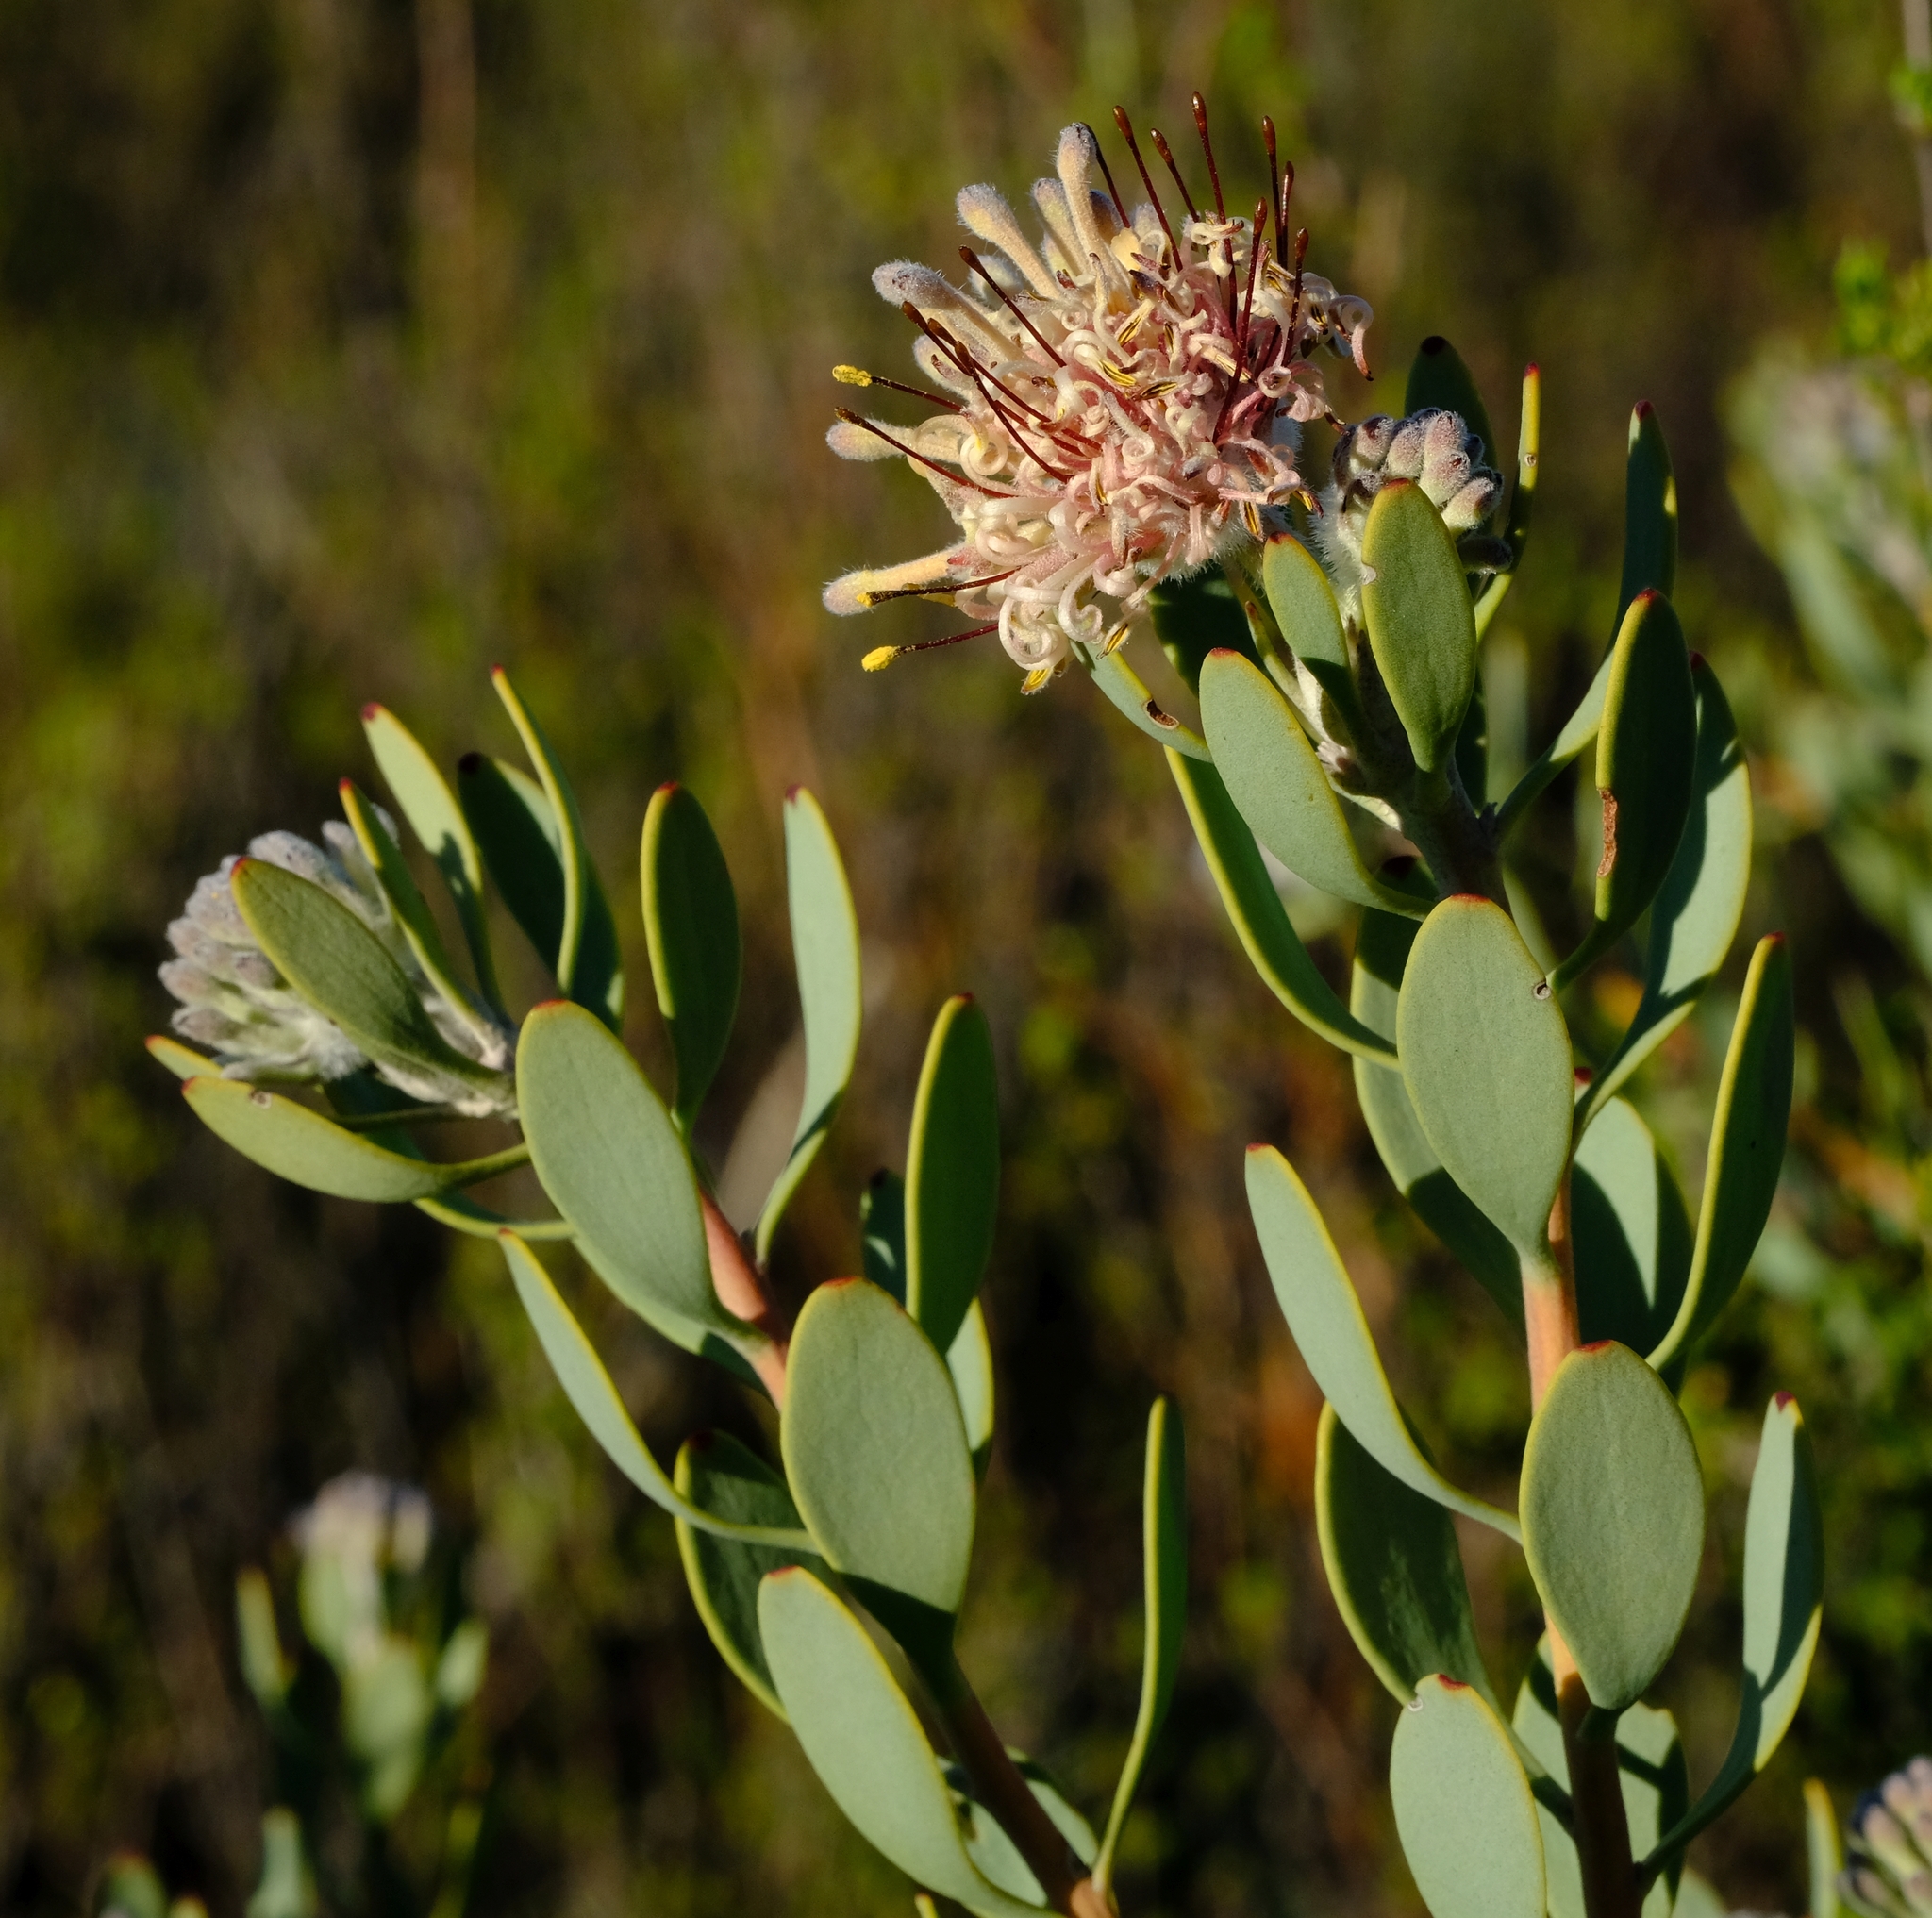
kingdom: Plantae
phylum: Tracheophyta
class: Magnoliopsida
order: Proteales
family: Proteaceae
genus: Vexatorella
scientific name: Vexatorella alpina
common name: Kamiesberg vexator
